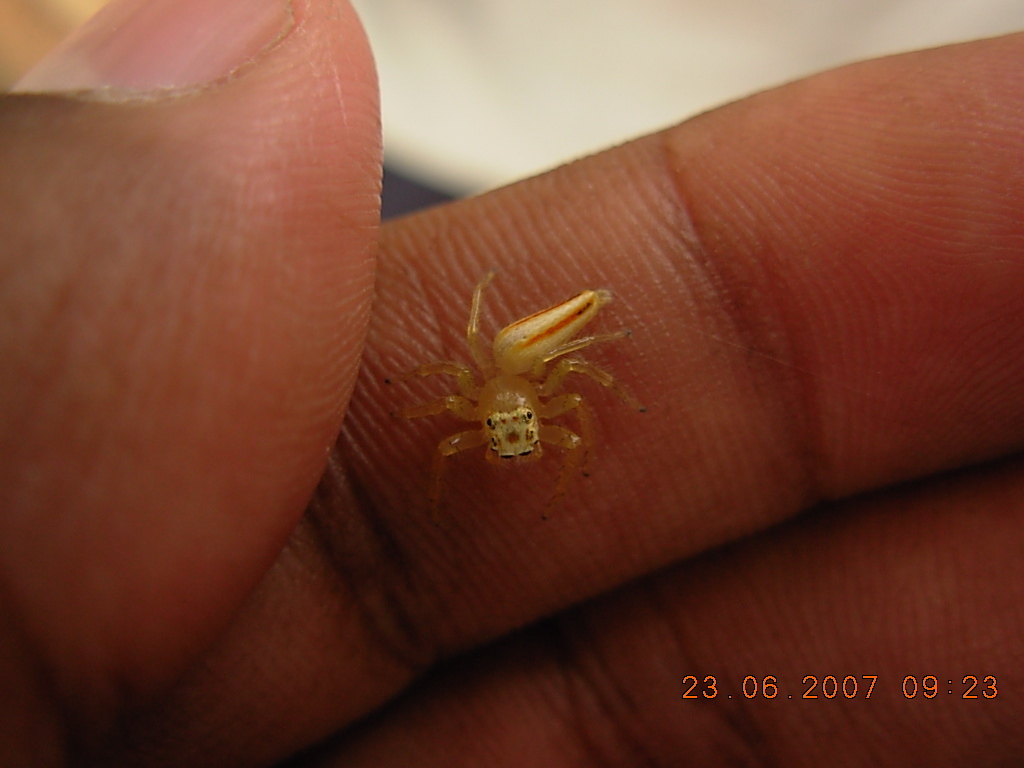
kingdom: Animalia
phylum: Arthropoda
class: Arachnida
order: Araneae
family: Salticidae
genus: Telamonia
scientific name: Telamonia dimidiata
